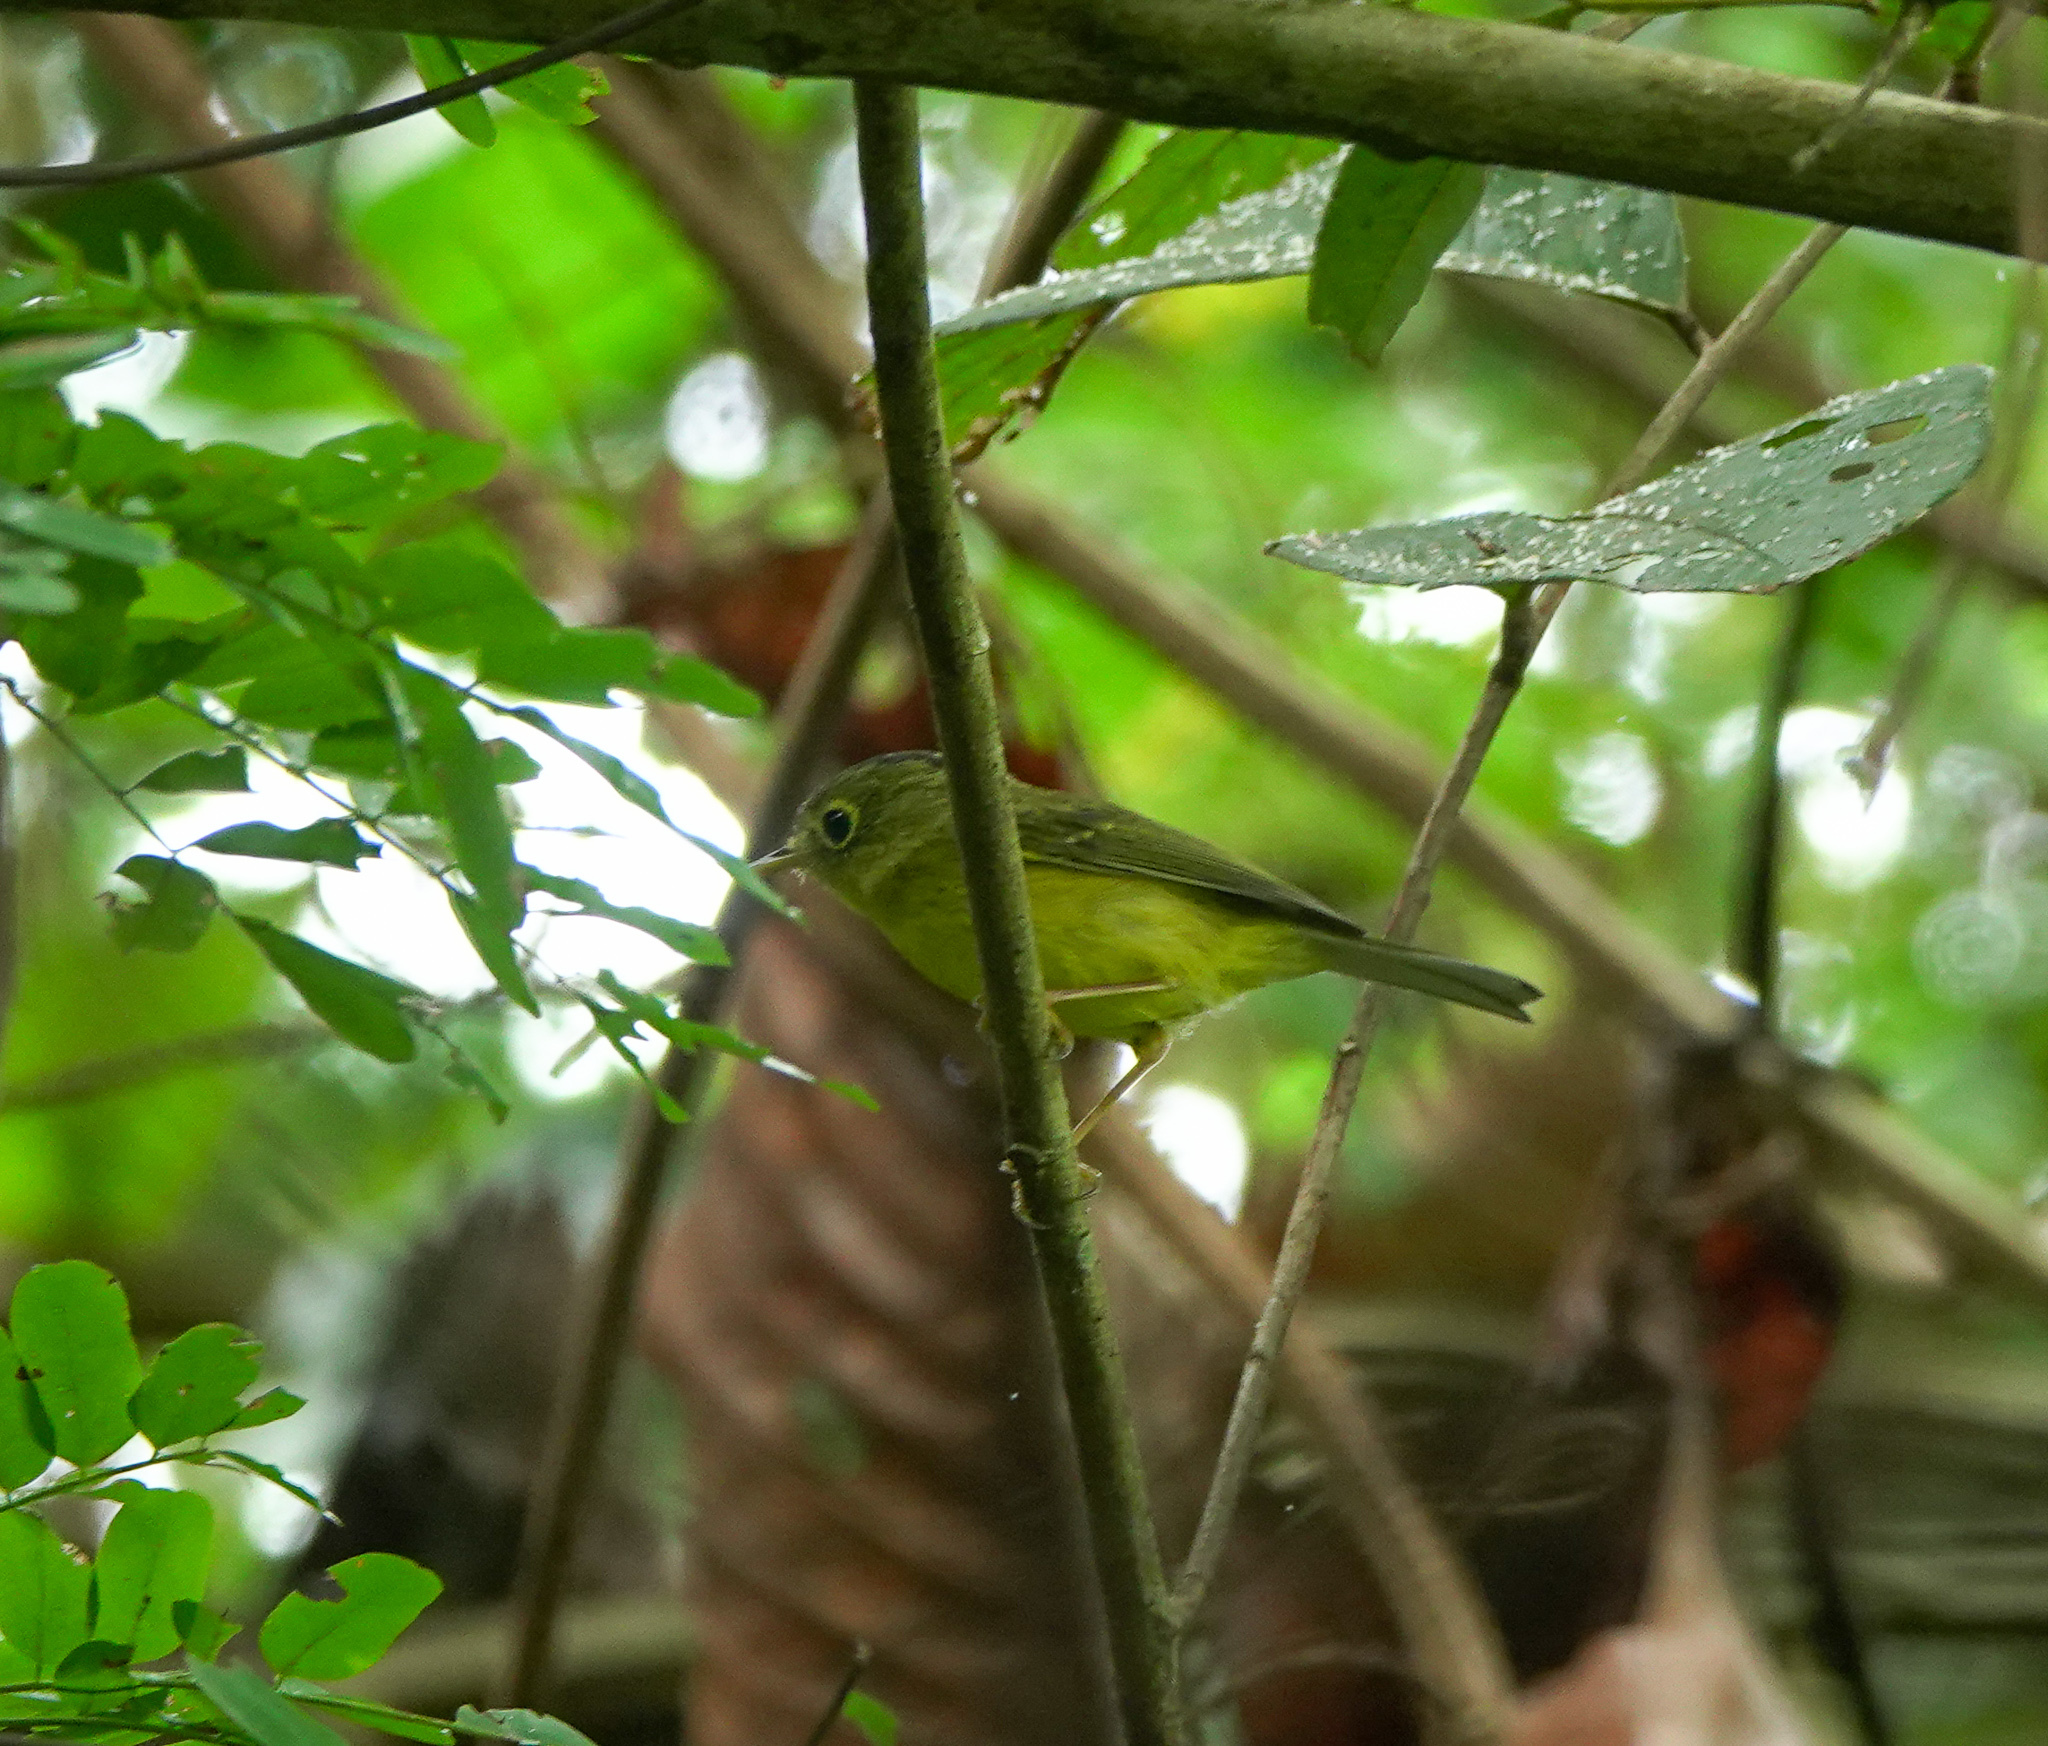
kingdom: Animalia
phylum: Chordata
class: Aves
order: Passeriformes
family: Phylloscopidae
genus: Seicercus
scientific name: Seicercus burkii
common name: Green-crowned warbler
